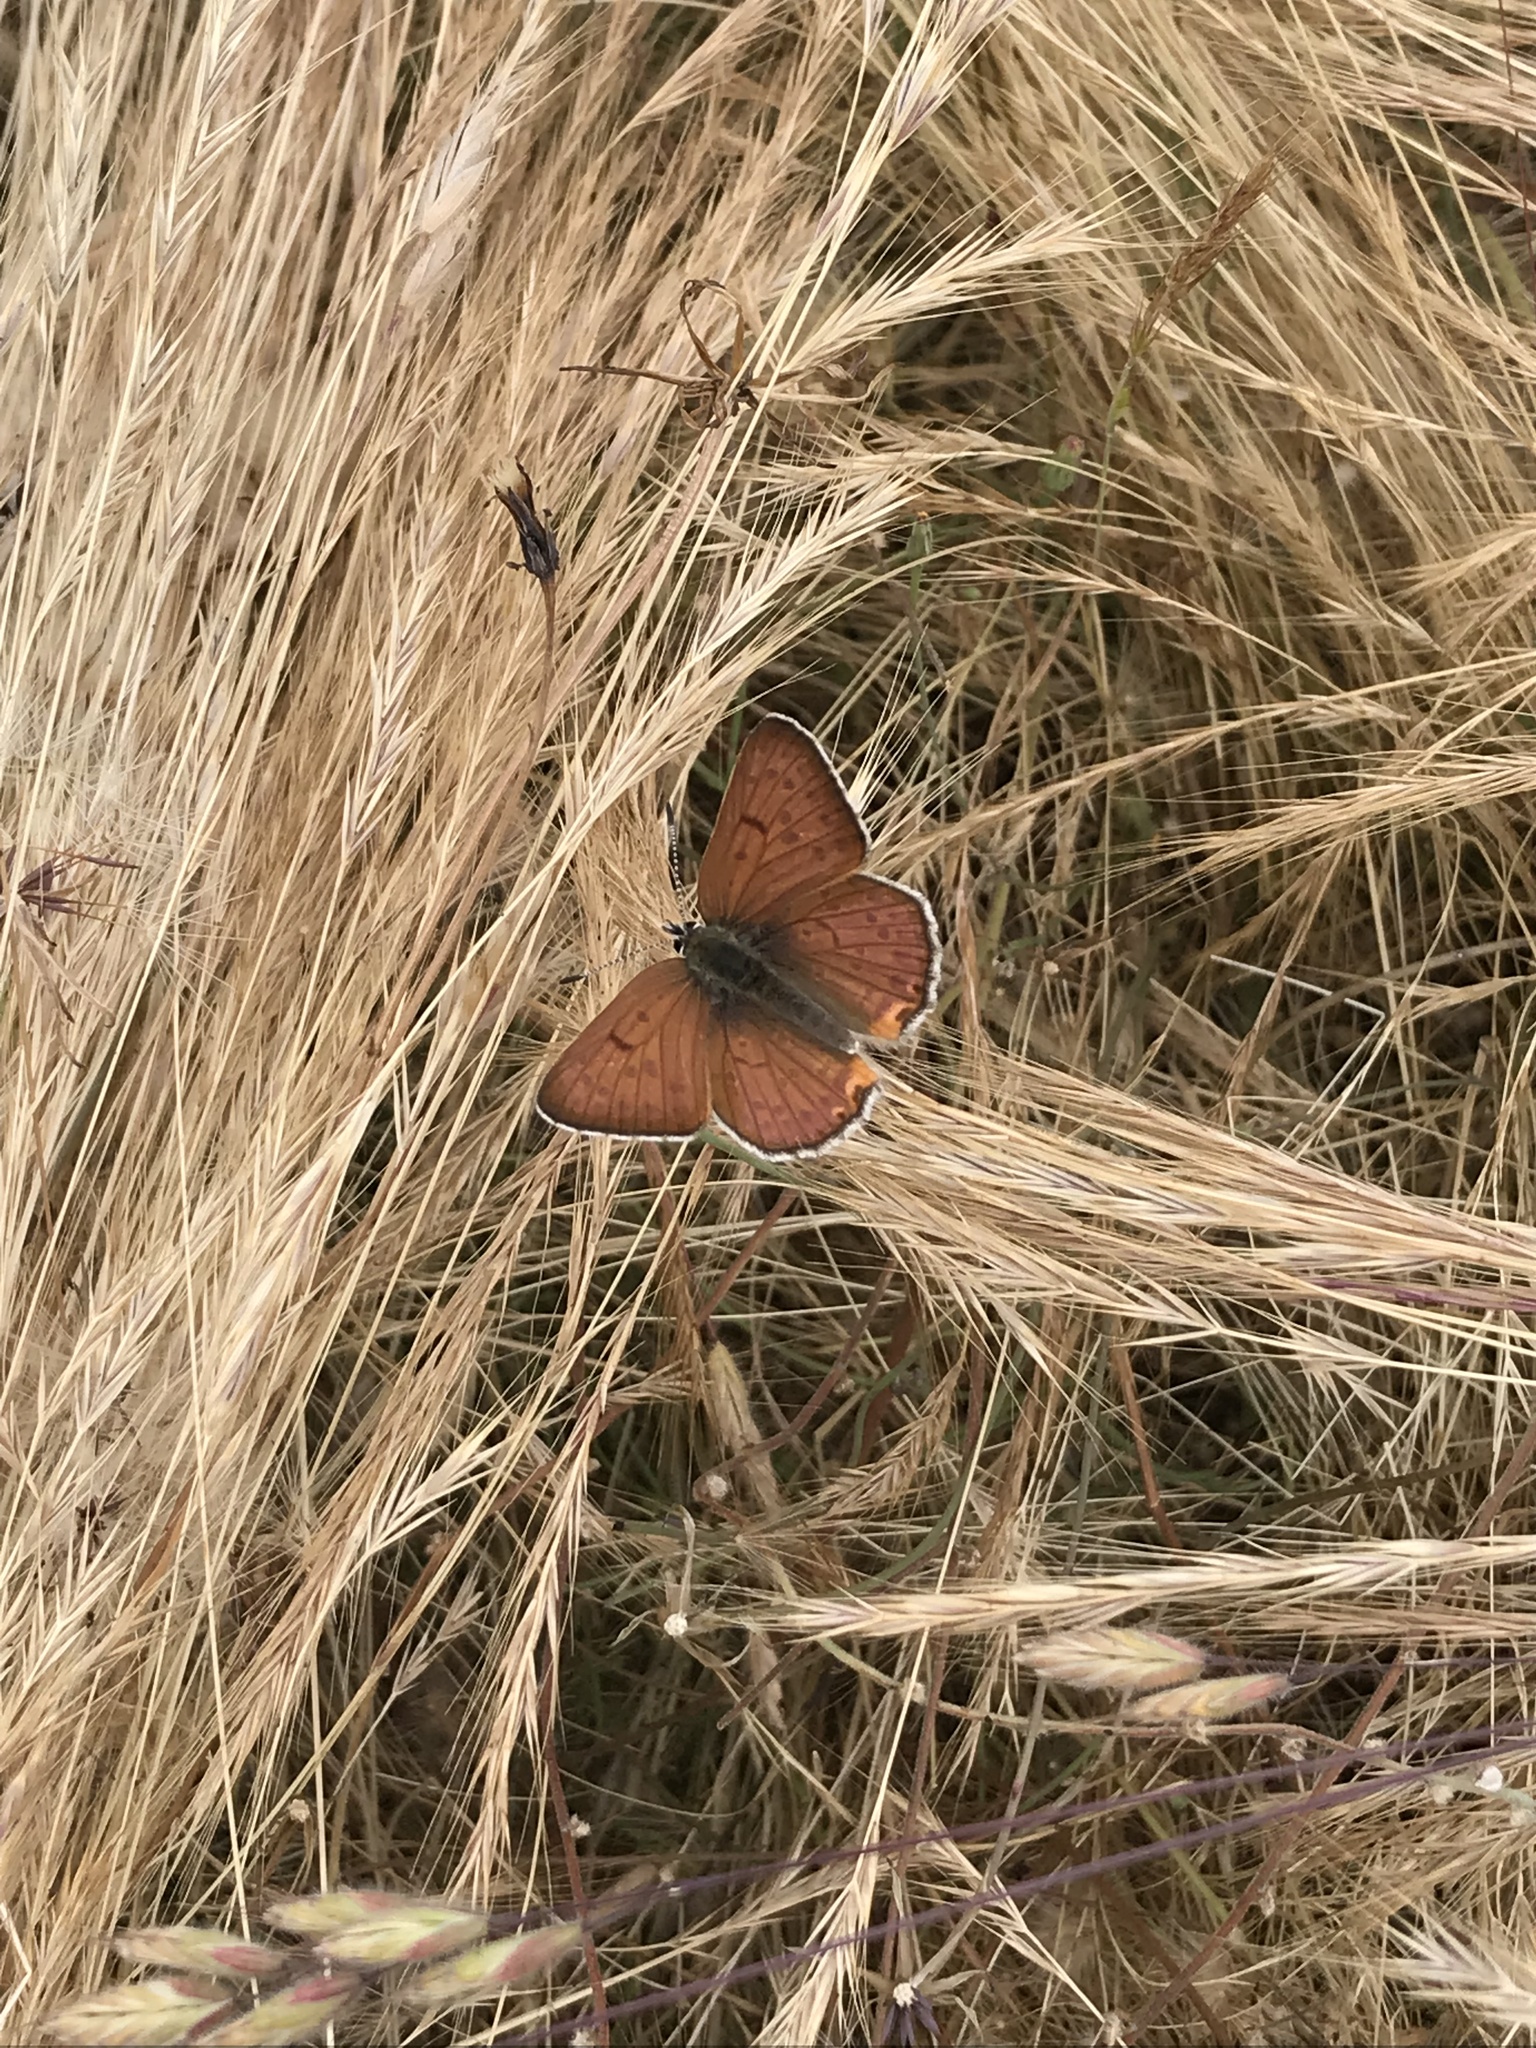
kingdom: Animalia
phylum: Arthropoda
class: Insecta
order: Lepidoptera
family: Lycaenidae
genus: Tharsalea
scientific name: Tharsalea gorgon
